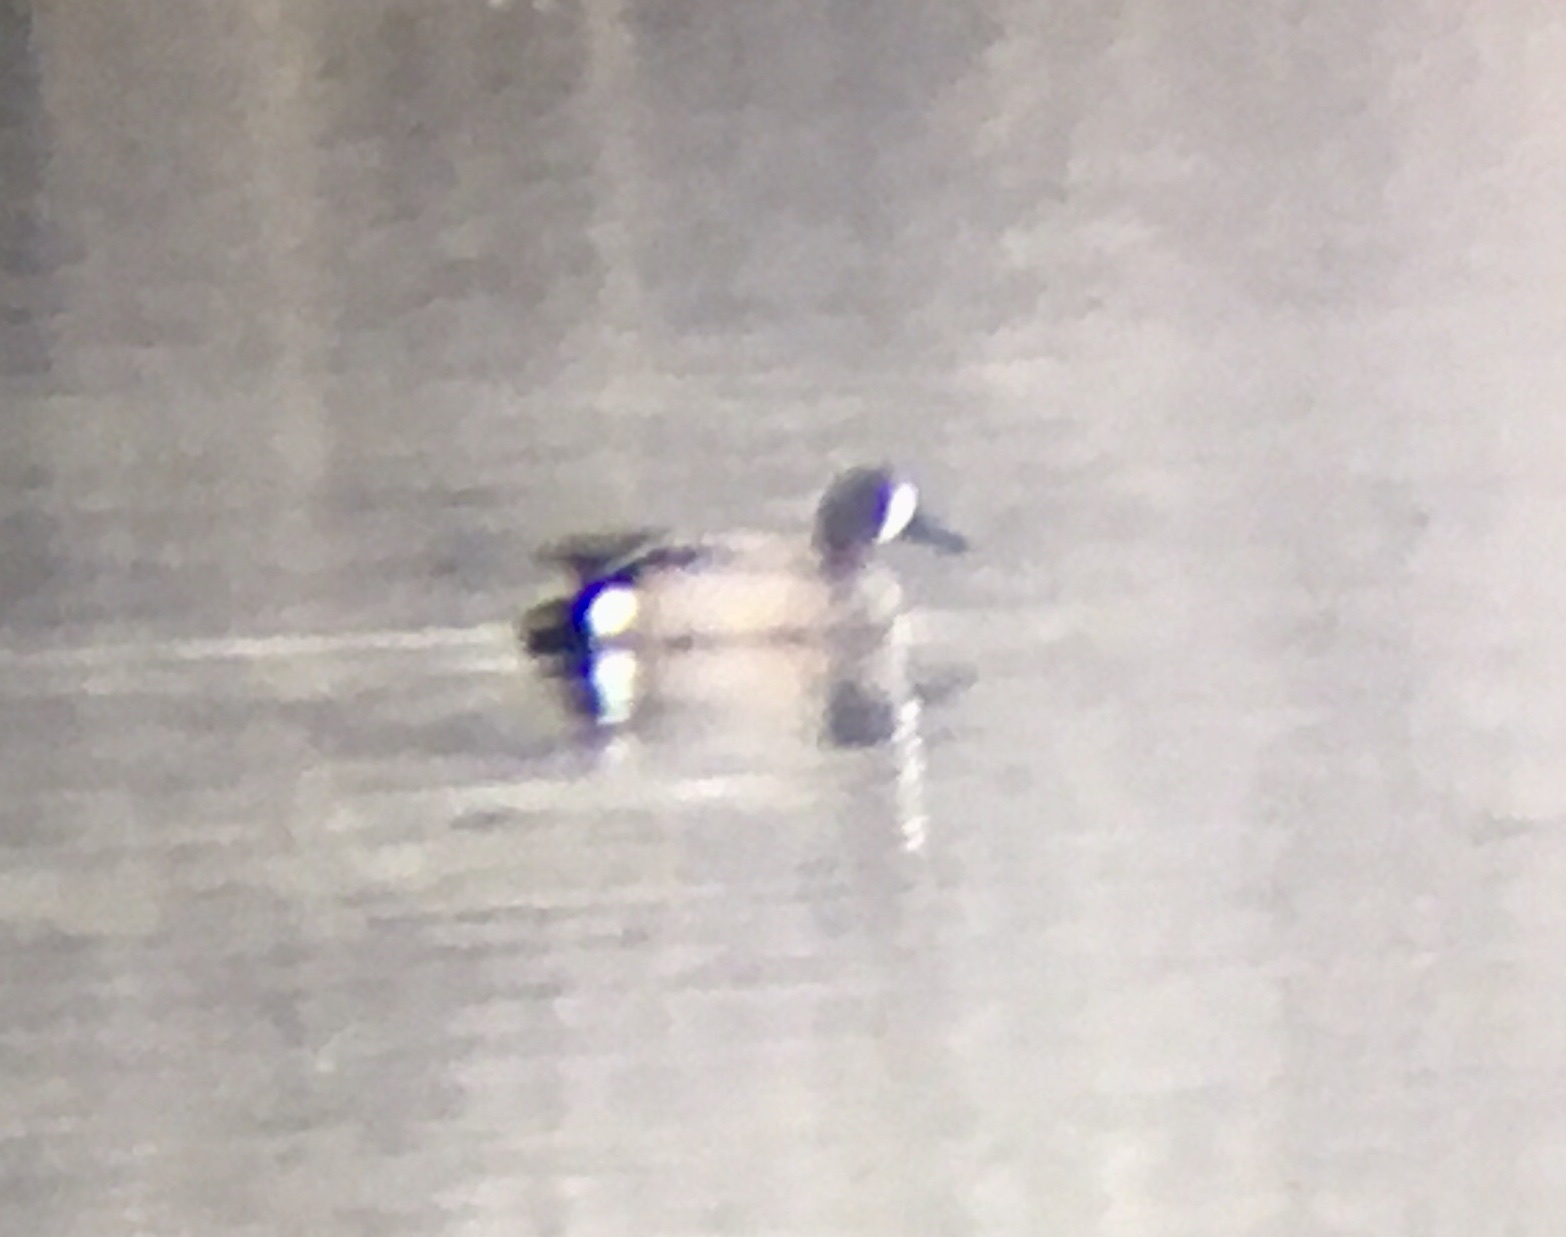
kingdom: Animalia
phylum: Chordata
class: Aves
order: Anseriformes
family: Anatidae
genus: Spatula
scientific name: Spatula discors
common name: Blue-winged teal
